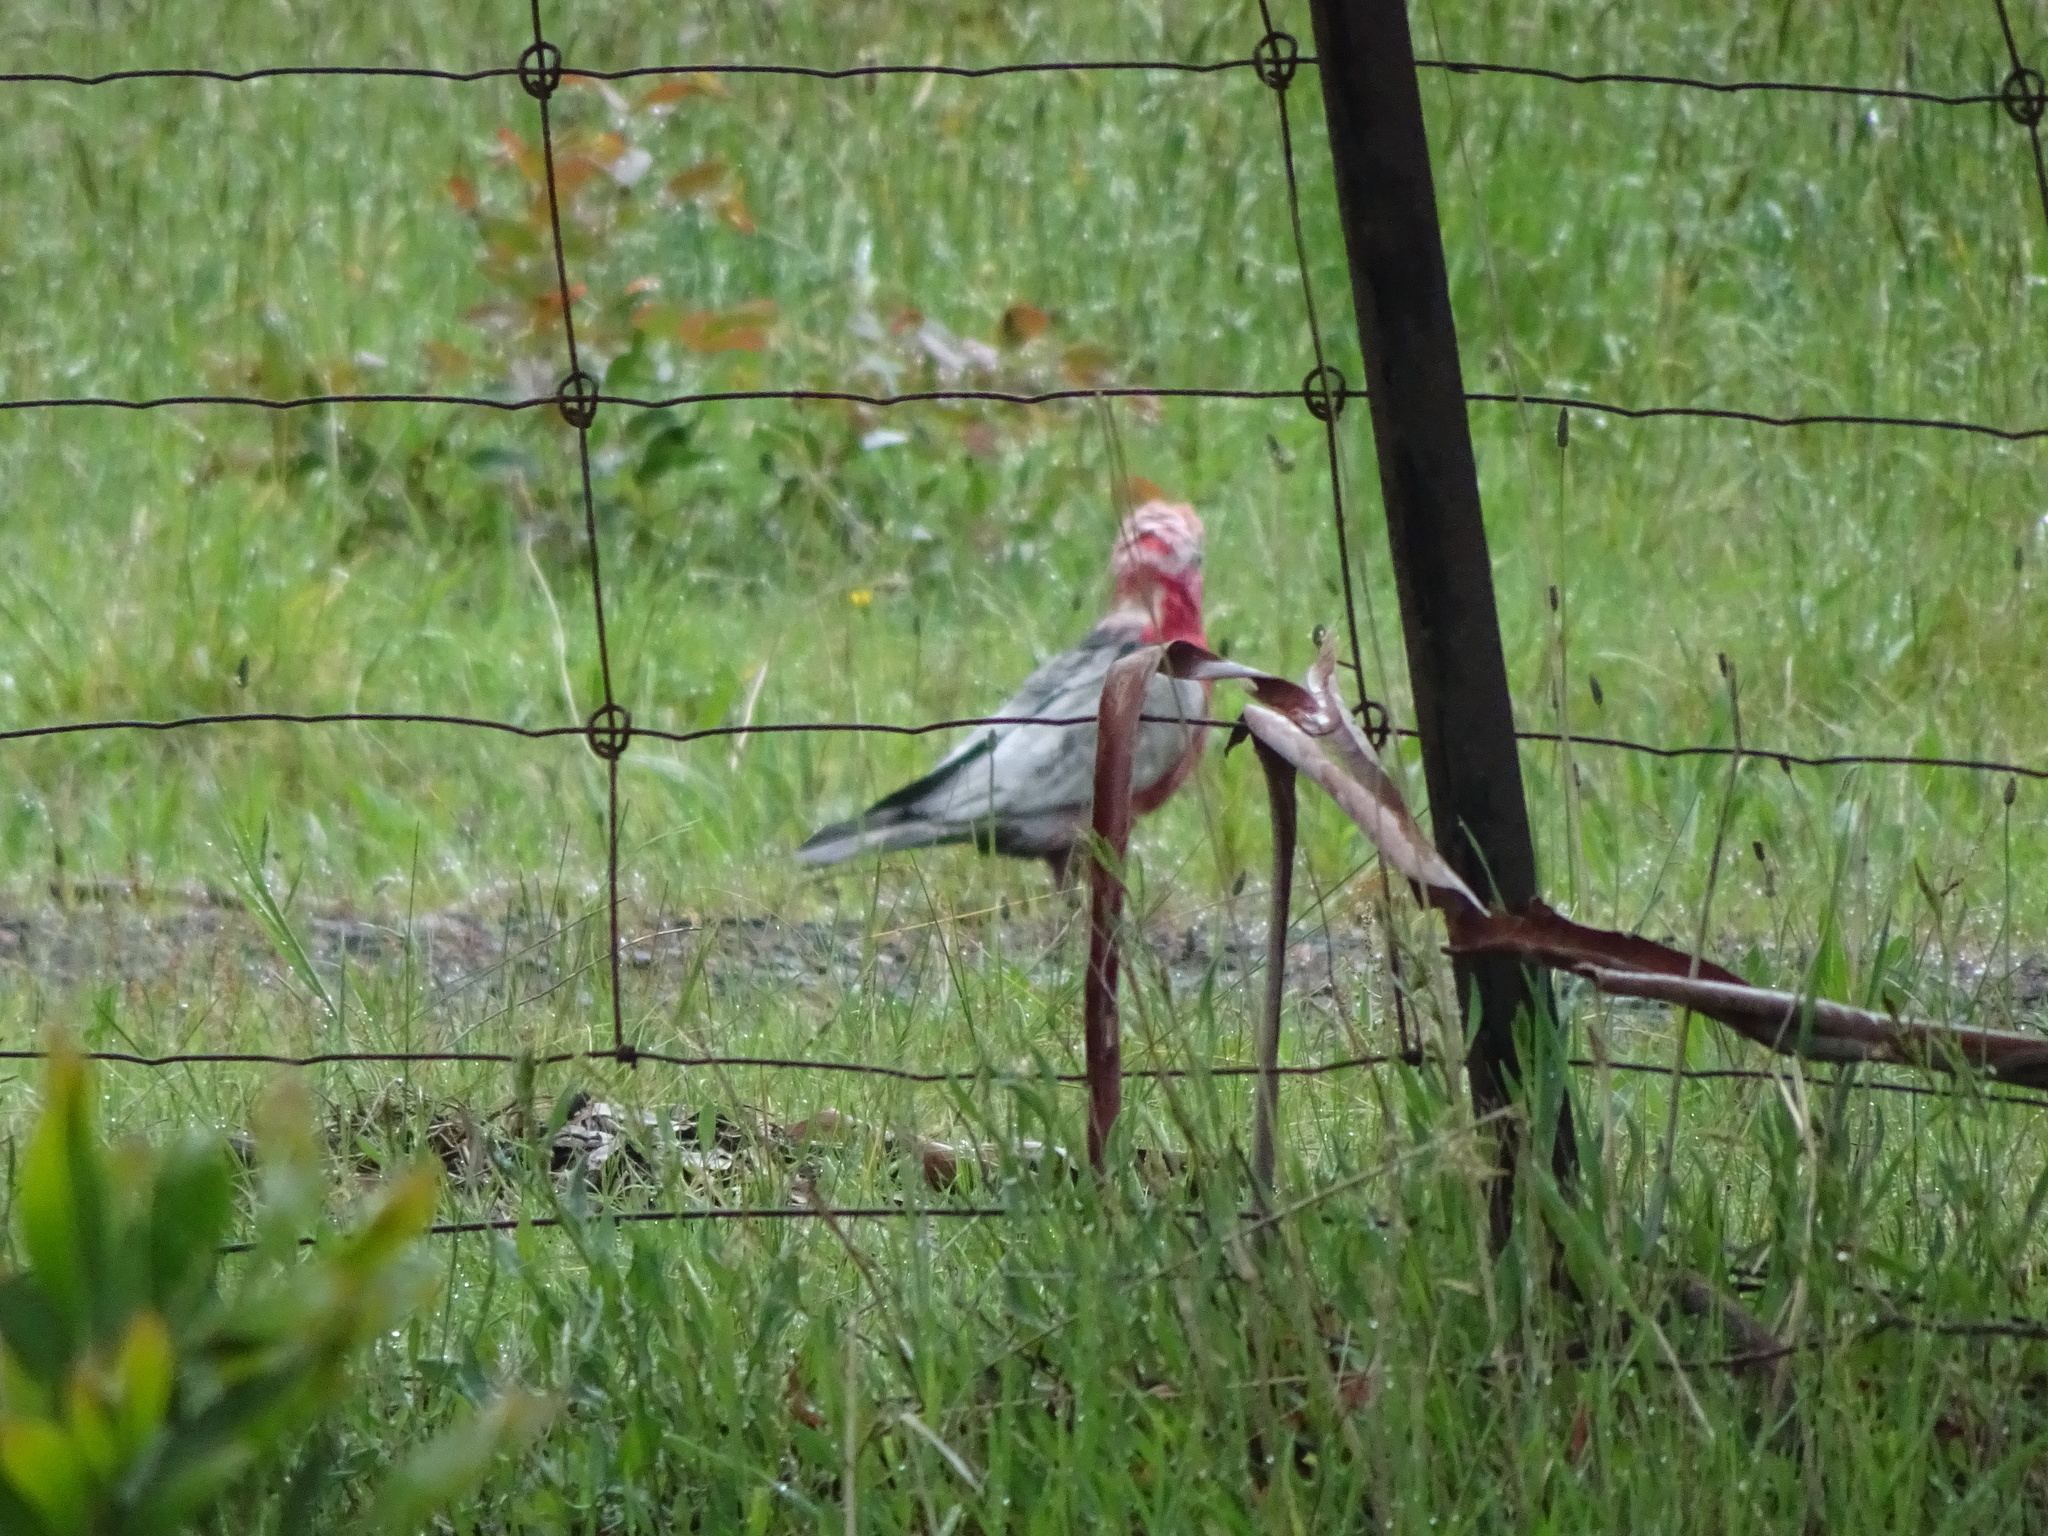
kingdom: Animalia
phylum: Chordata
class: Aves
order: Psittaciformes
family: Psittacidae
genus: Eolophus
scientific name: Eolophus roseicapilla
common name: Galah
